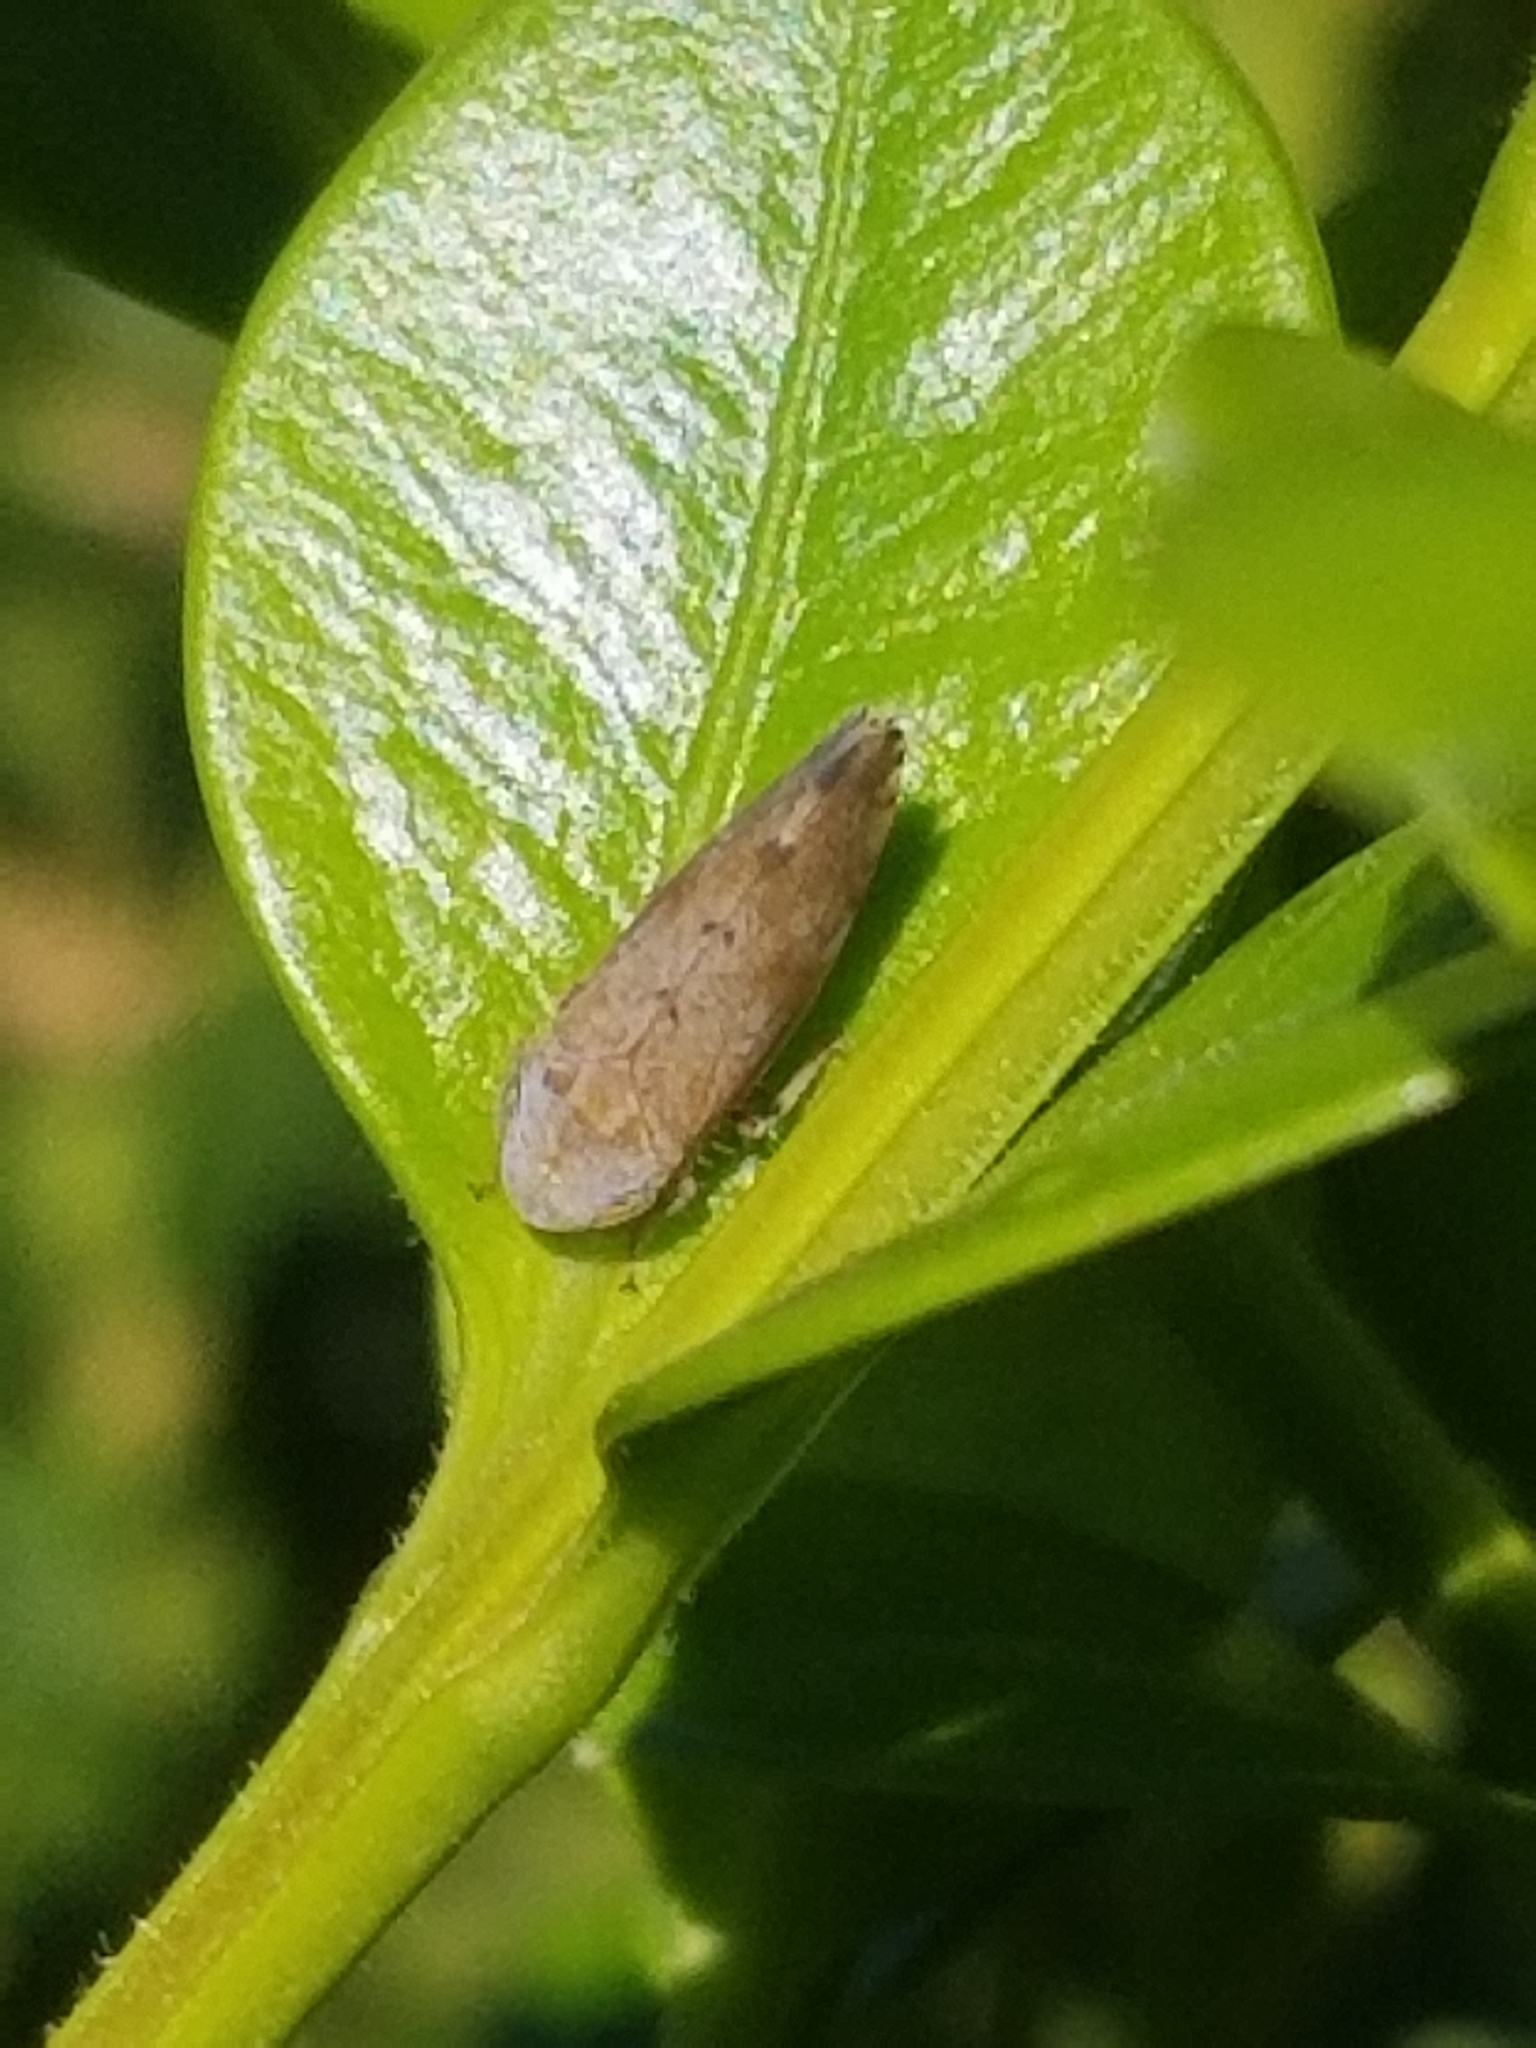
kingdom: Animalia
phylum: Arthropoda
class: Insecta
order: Hemiptera
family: Cicadellidae
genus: Fieberiella
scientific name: Fieberiella florii
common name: Flor’s leafhopper
